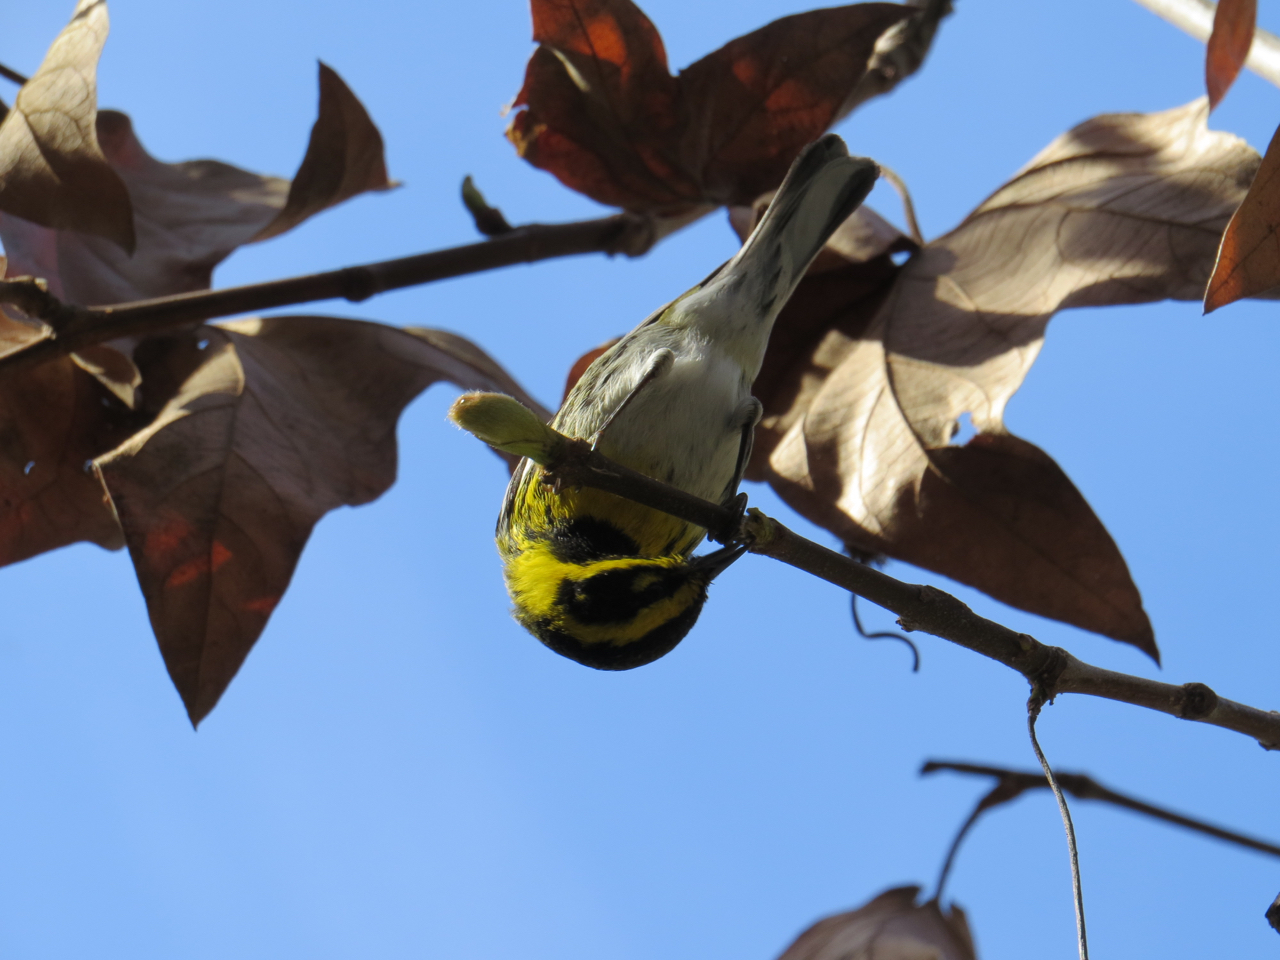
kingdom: Animalia
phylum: Chordata
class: Aves
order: Passeriformes
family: Parulidae
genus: Setophaga
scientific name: Setophaga townsendi
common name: Townsend's warbler
